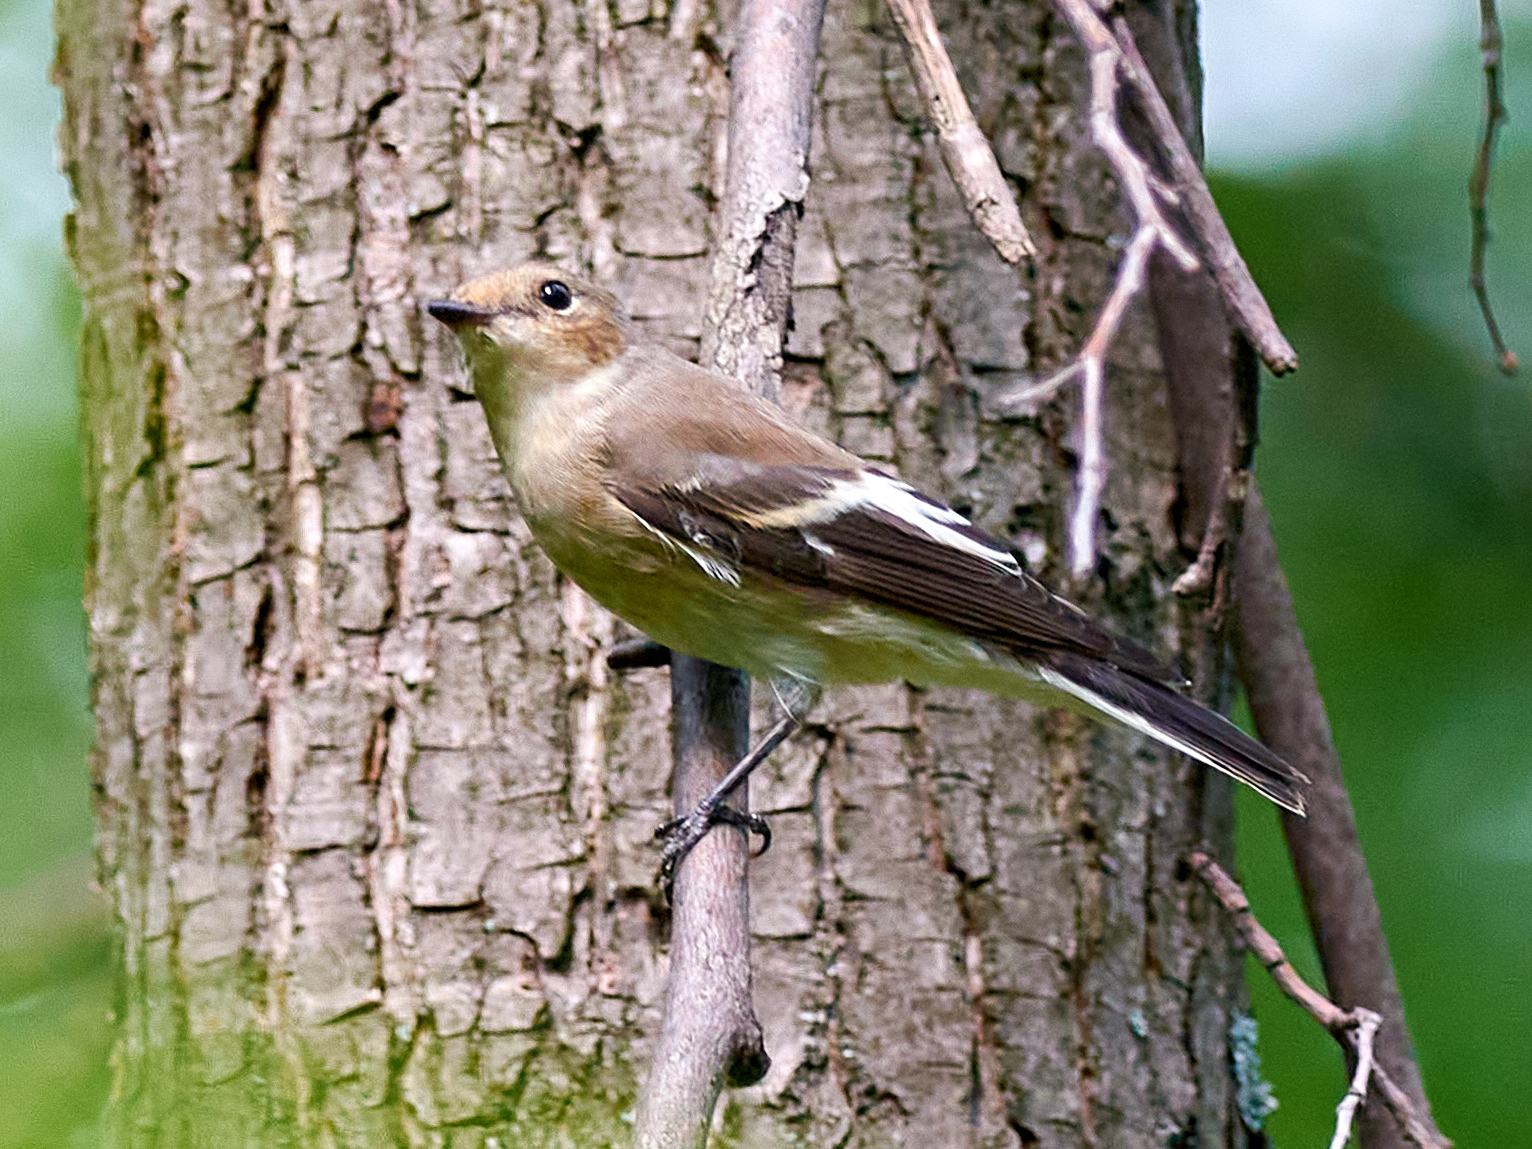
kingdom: Animalia
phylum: Chordata
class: Aves
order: Passeriformes
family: Muscicapidae
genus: Ficedula
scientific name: Ficedula hypoleuca
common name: European pied flycatcher
